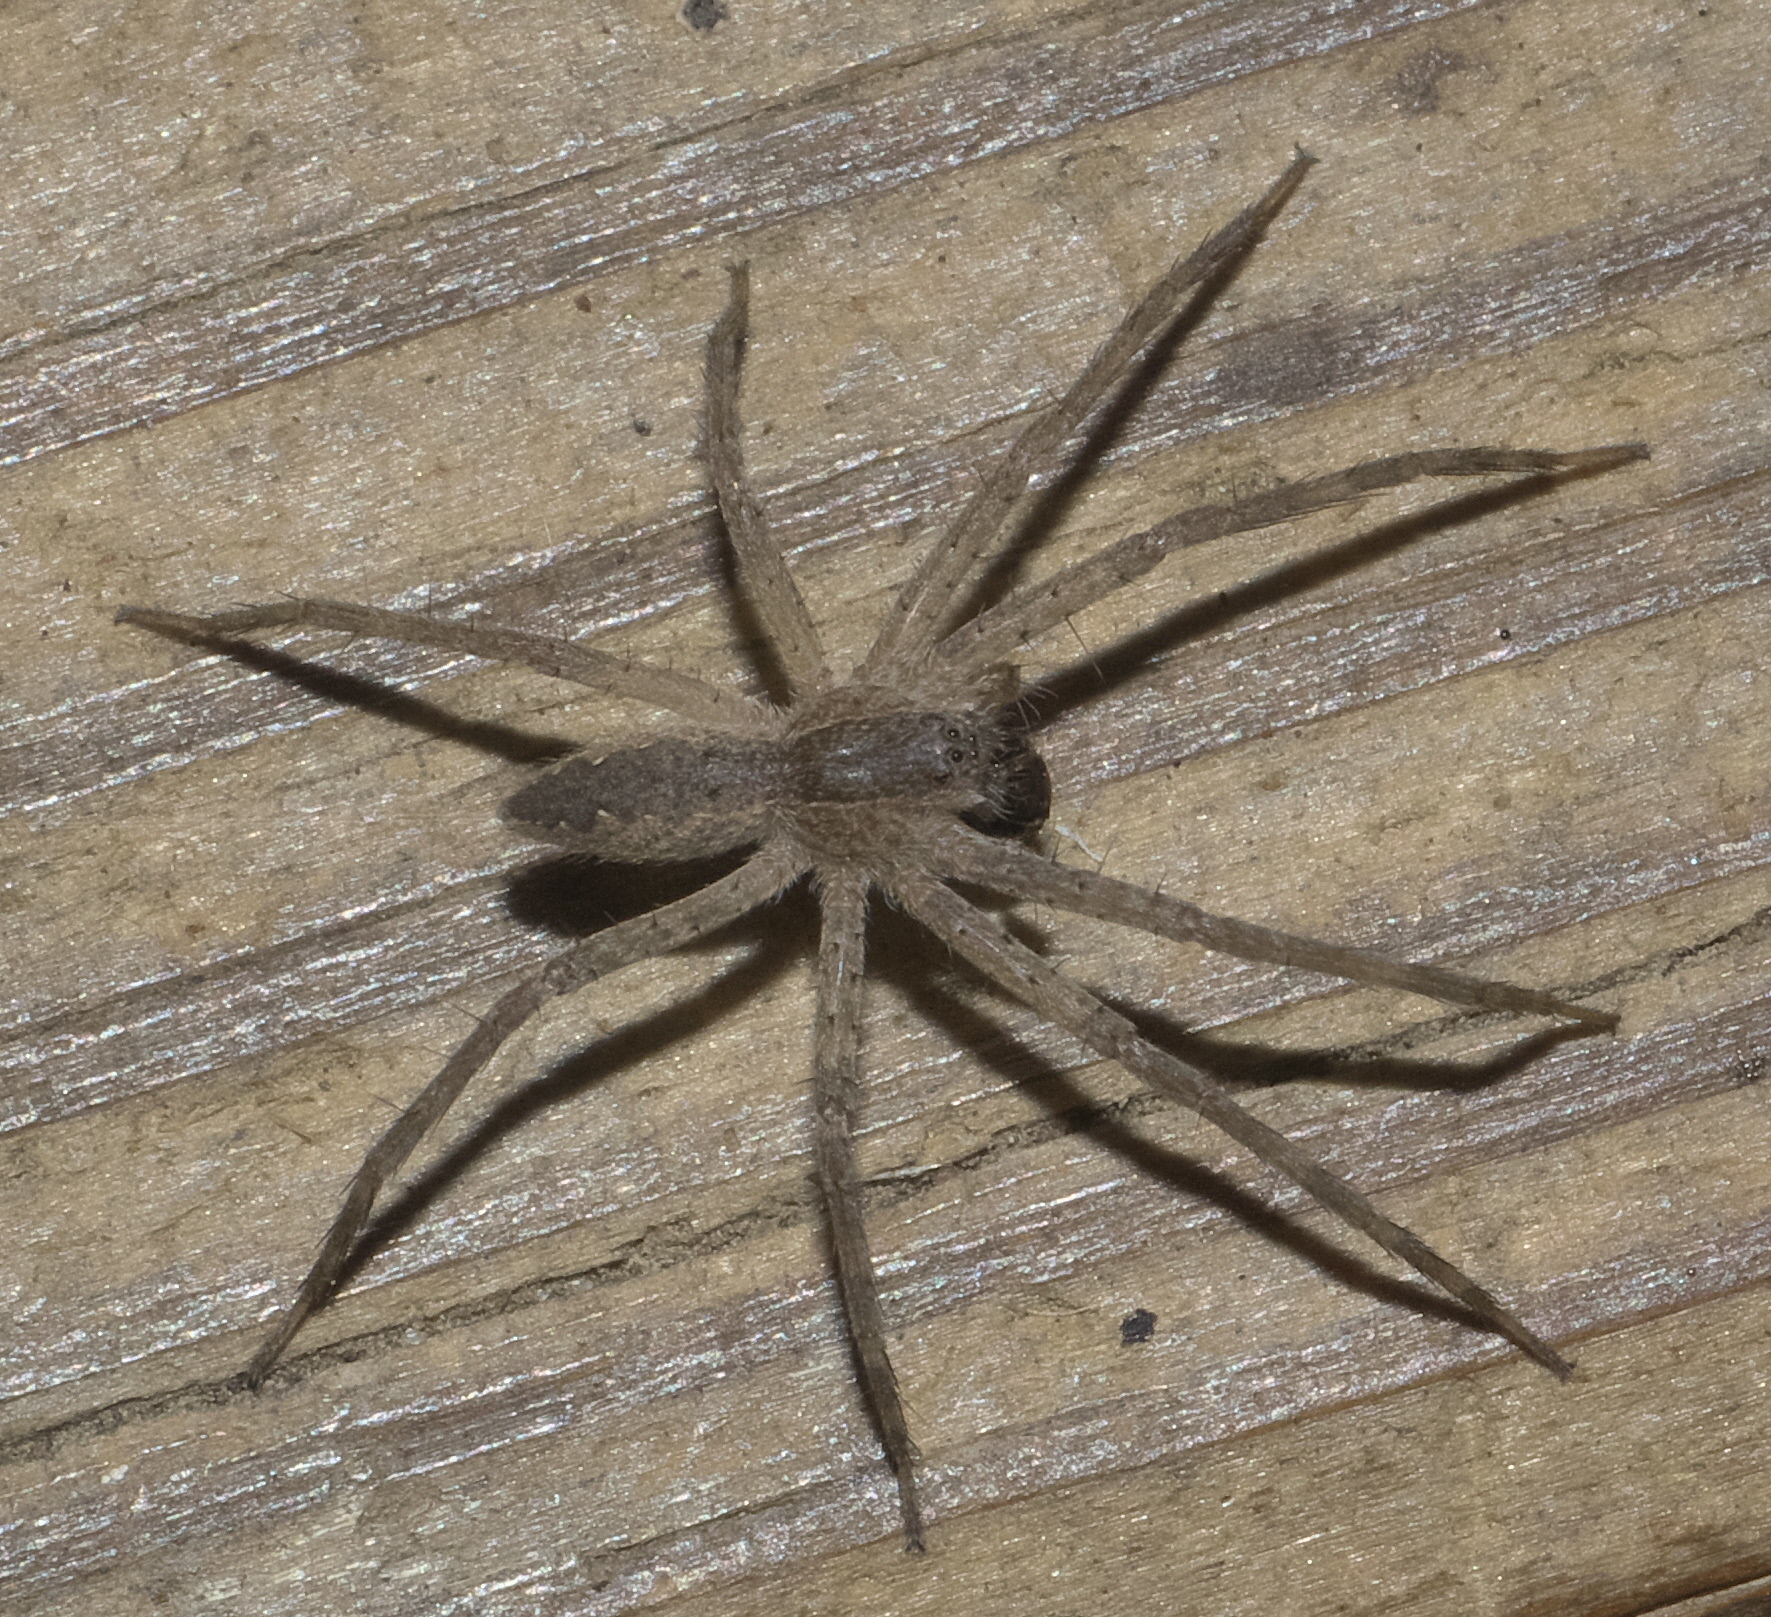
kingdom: Animalia
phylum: Arthropoda
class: Arachnida
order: Araneae
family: Pisauridae
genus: Pisaurina
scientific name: Pisaurina mira
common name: American nursery web spider
